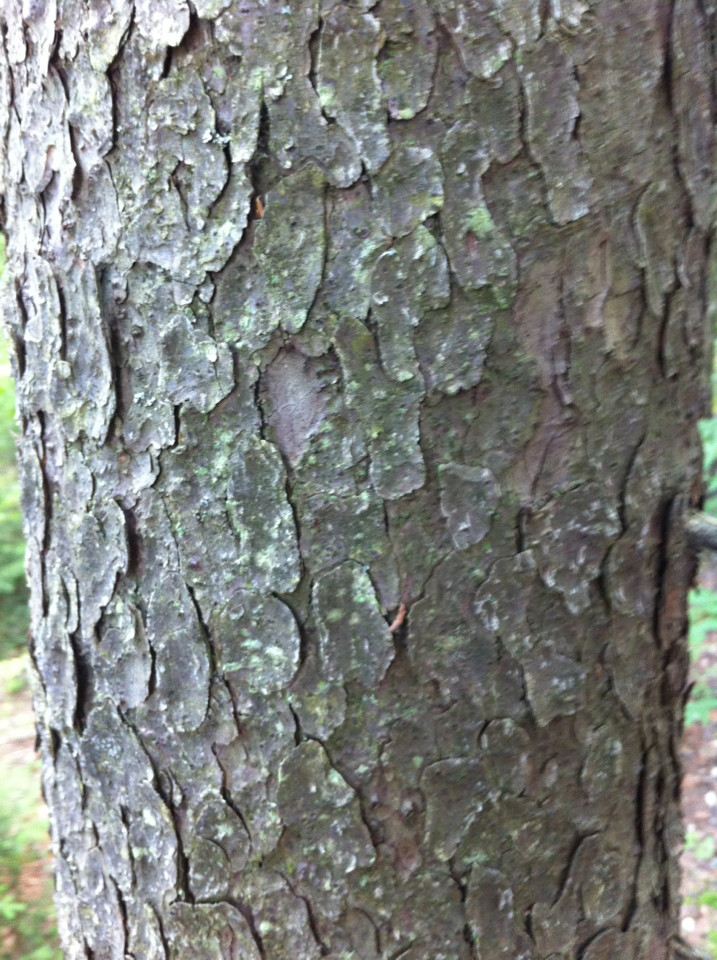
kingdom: Plantae
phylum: Tracheophyta
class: Pinopsida
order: Pinales
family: Pinaceae
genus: Picea
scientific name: Picea rubens
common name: Red spruce
